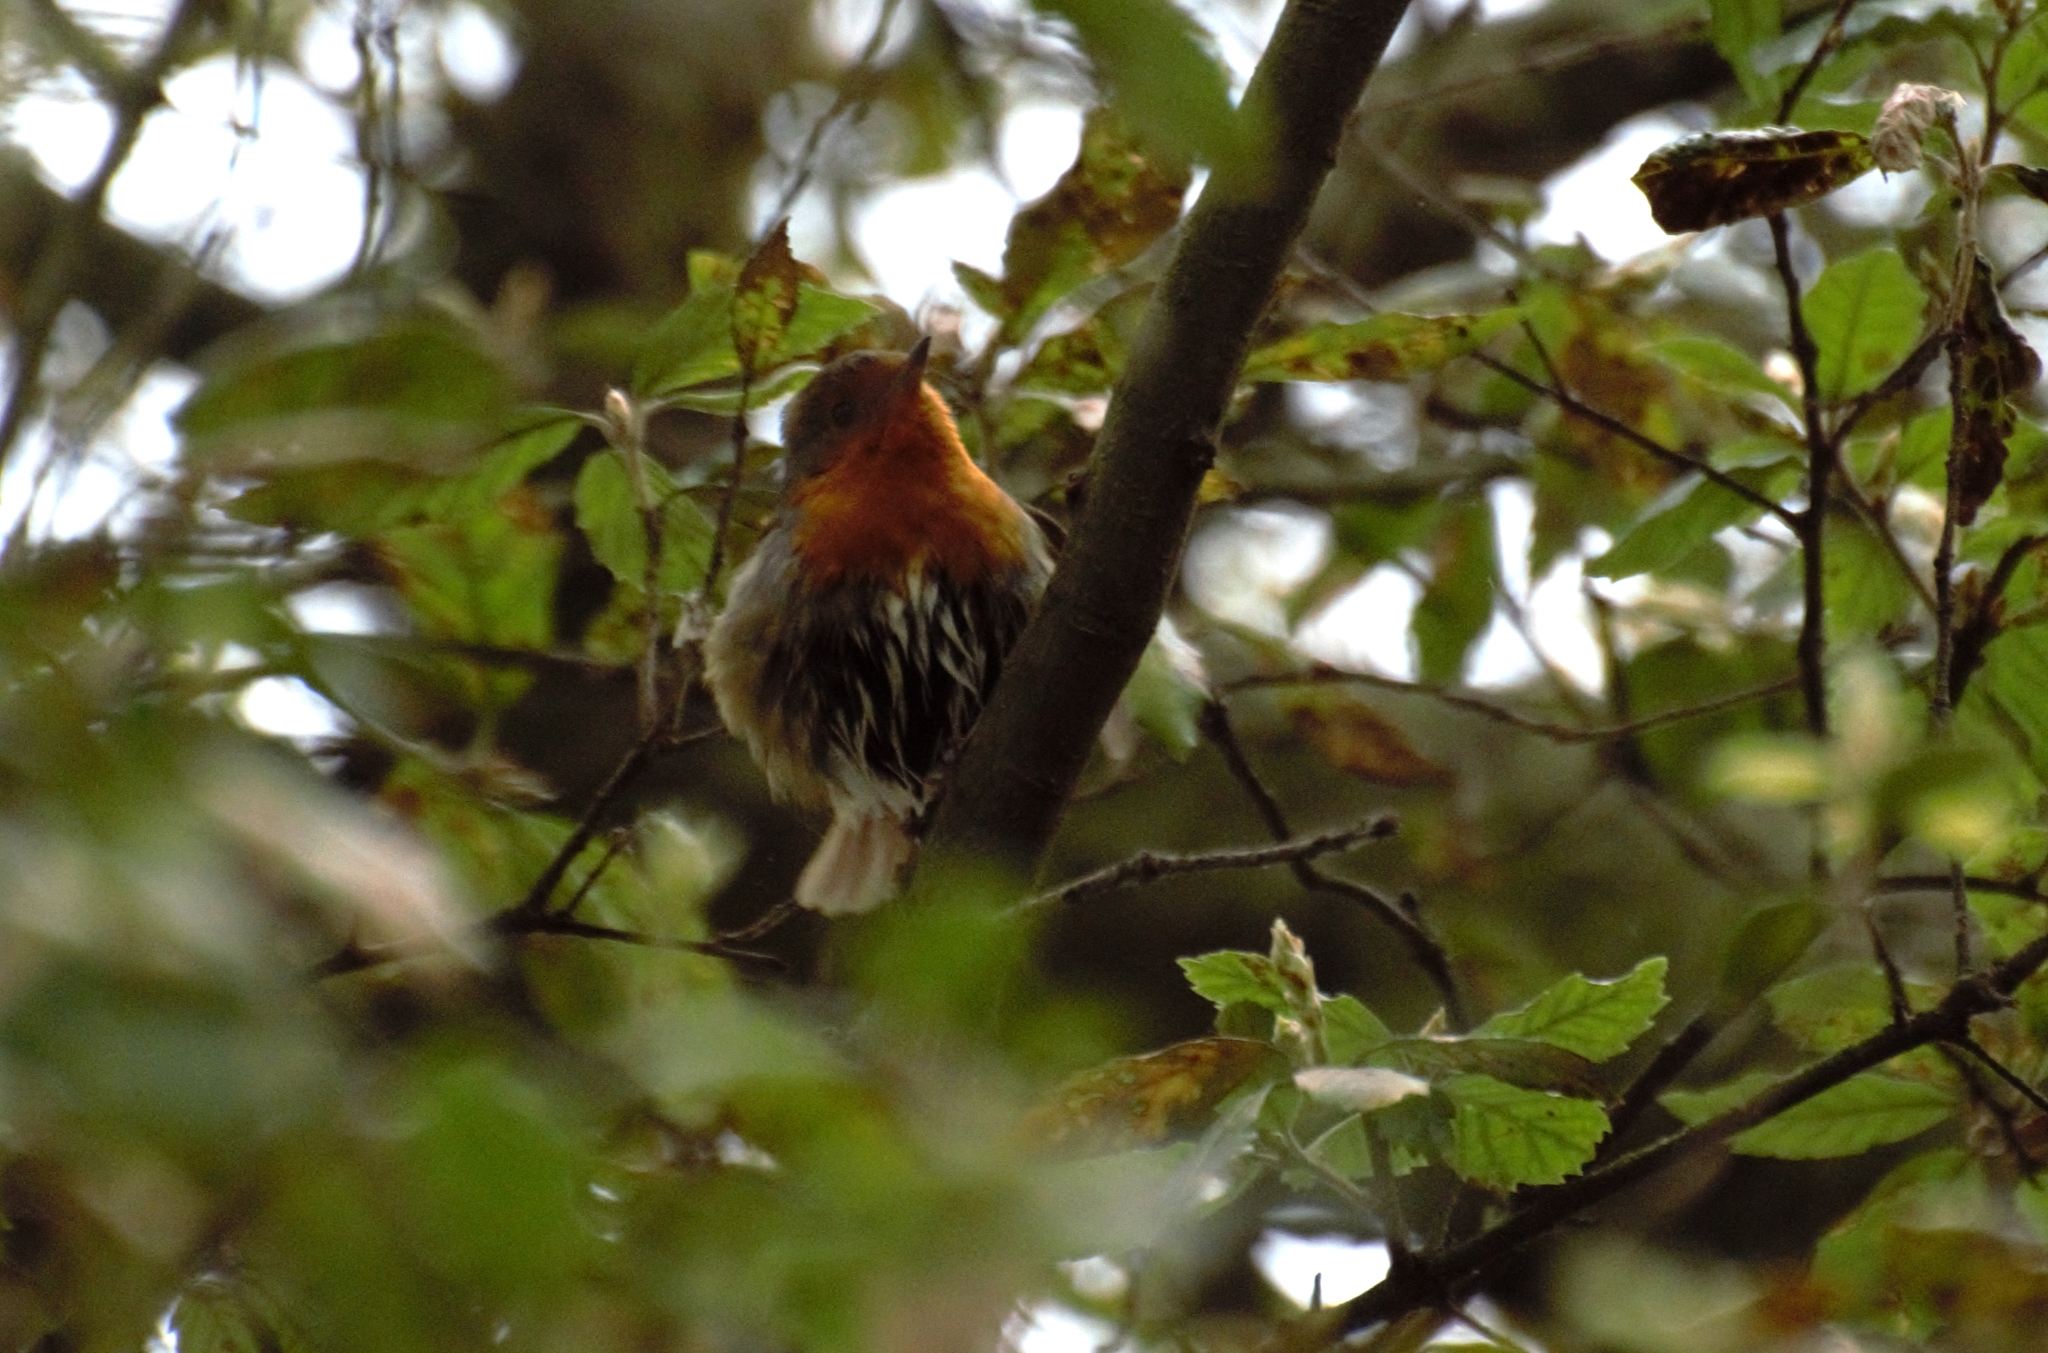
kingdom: Animalia
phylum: Chordata
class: Aves
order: Passeriformes
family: Muscicapidae
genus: Erithacus
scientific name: Erithacus rubecula
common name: European robin
